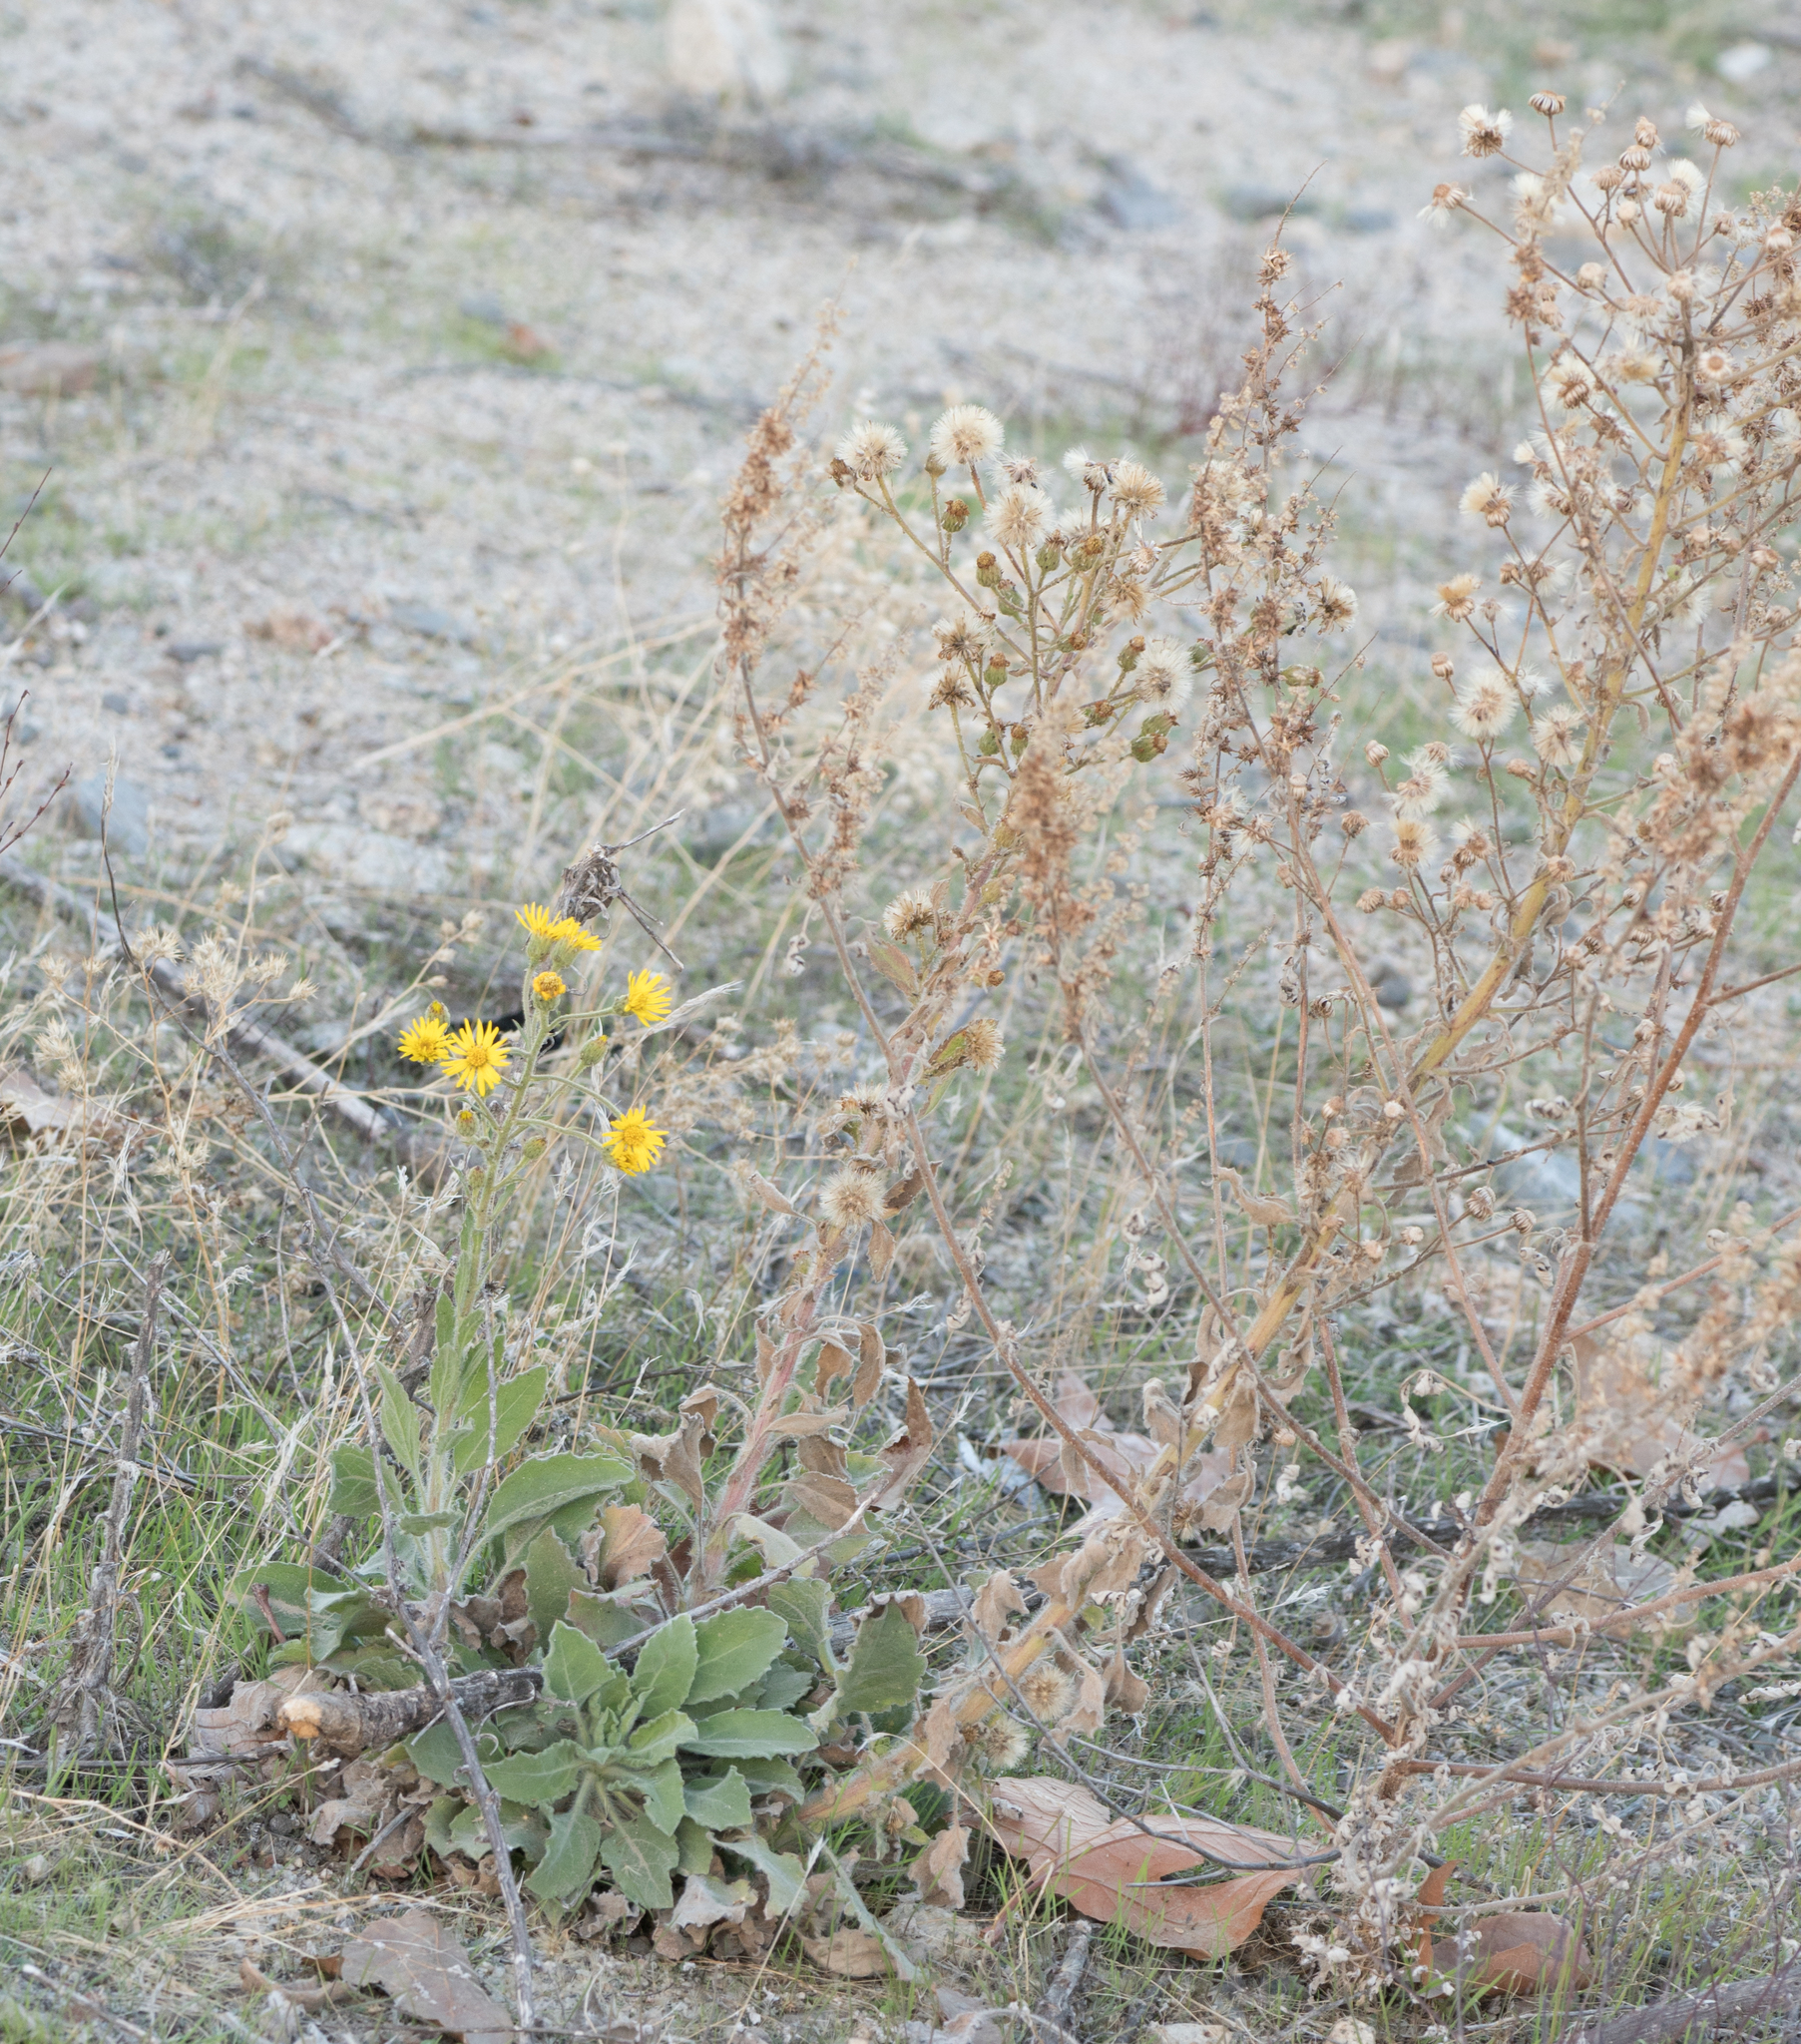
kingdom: Plantae
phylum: Tracheophyta
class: Magnoliopsida
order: Asterales
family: Asteraceae
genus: Heterotheca
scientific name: Heterotheca grandiflora
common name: Telegraphweed
